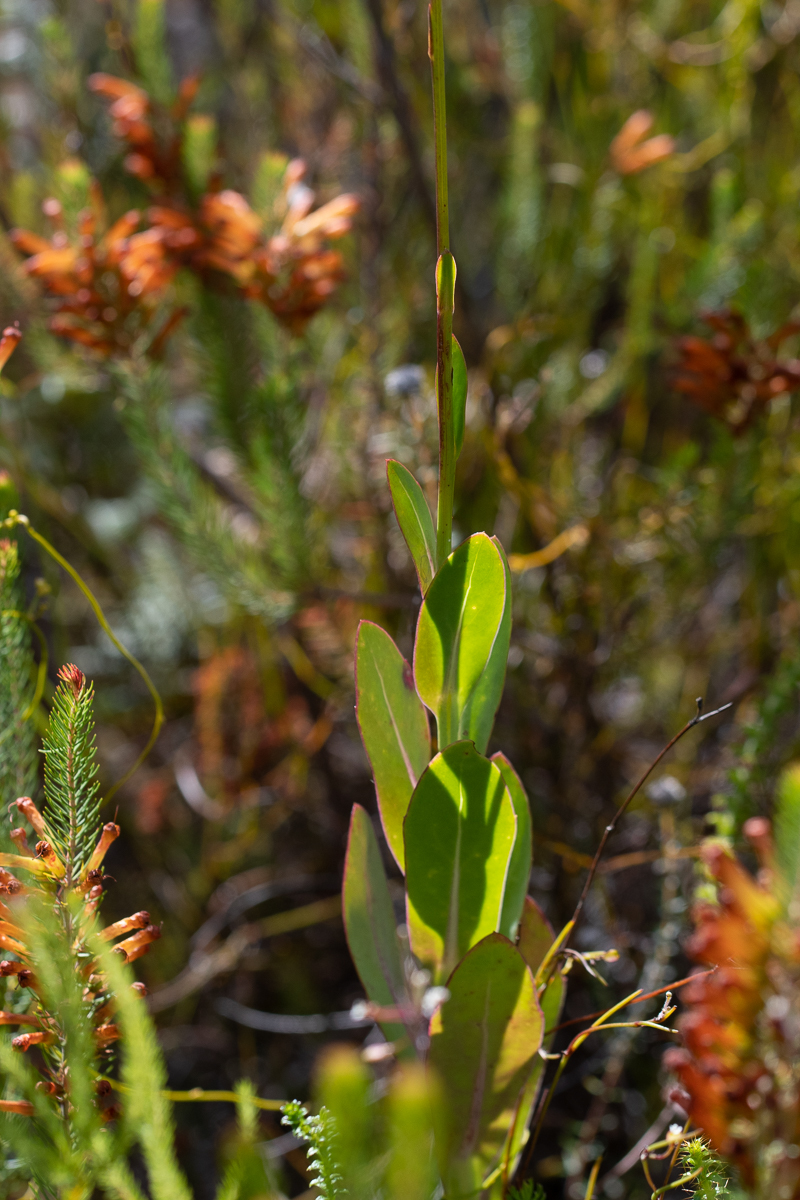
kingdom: Plantae
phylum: Tracheophyta
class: Magnoliopsida
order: Asterales
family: Asteraceae
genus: Othonna
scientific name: Othonna quinquedentata
